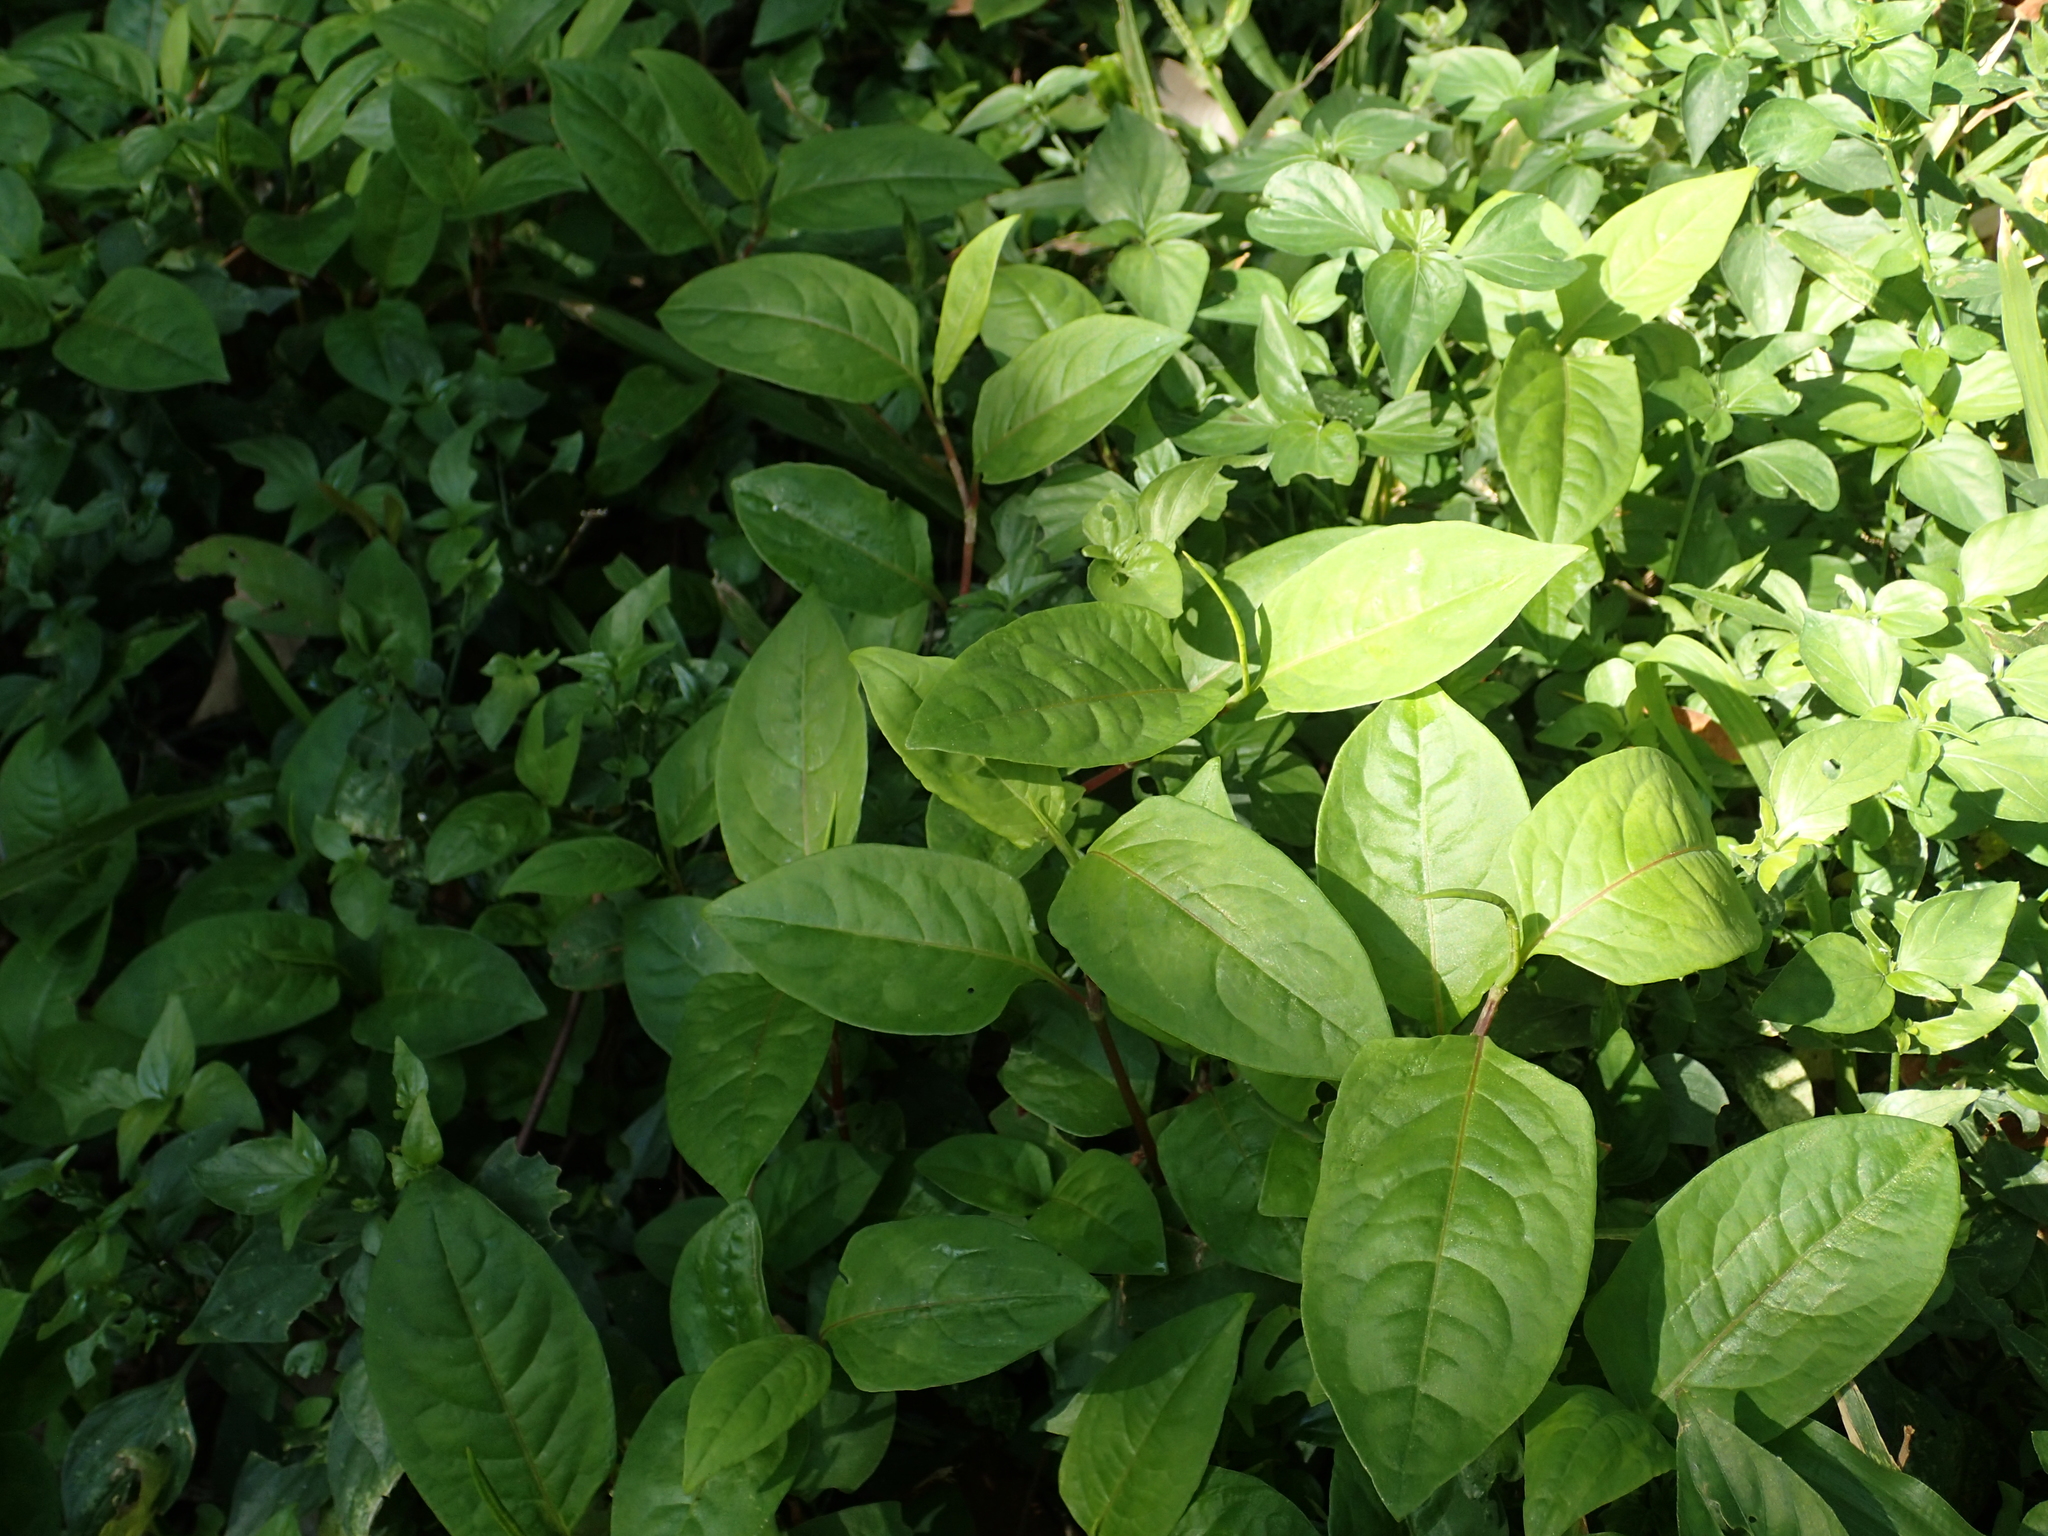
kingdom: Plantae
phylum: Tracheophyta
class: Magnoliopsida
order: Caryophyllales
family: Polygonaceae
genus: Persicaria
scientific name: Persicaria chinensis
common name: Chinese knotweed
